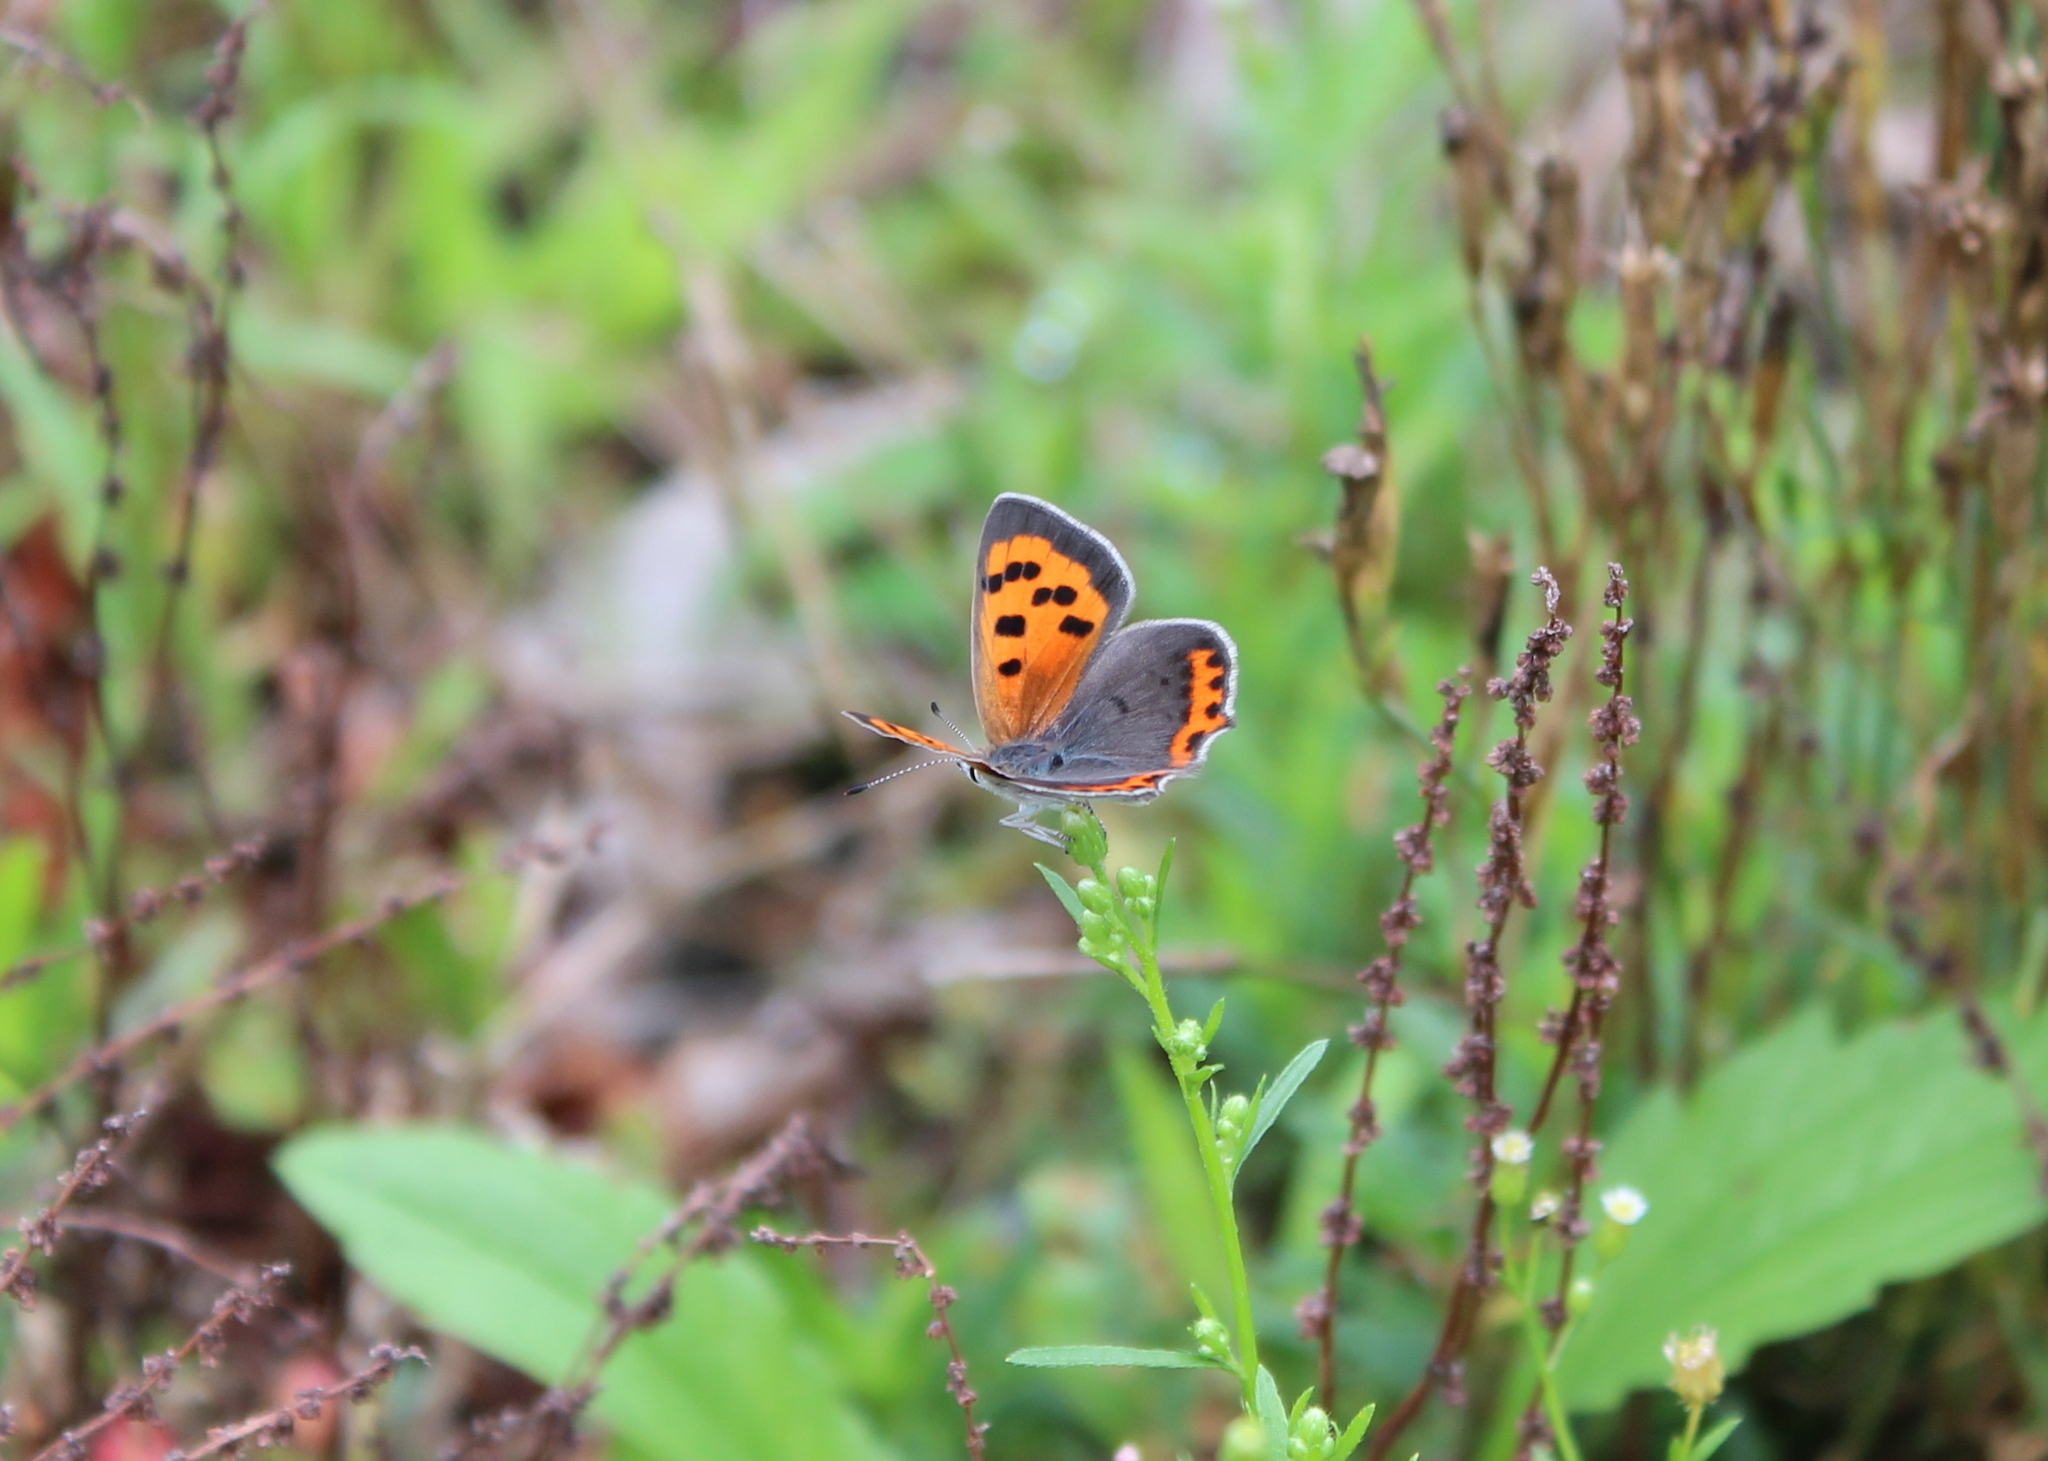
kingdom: Animalia
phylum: Arthropoda
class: Insecta
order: Lepidoptera
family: Lycaenidae
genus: Lycaena
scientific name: Lycaena hypophlaeas
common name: American copper
